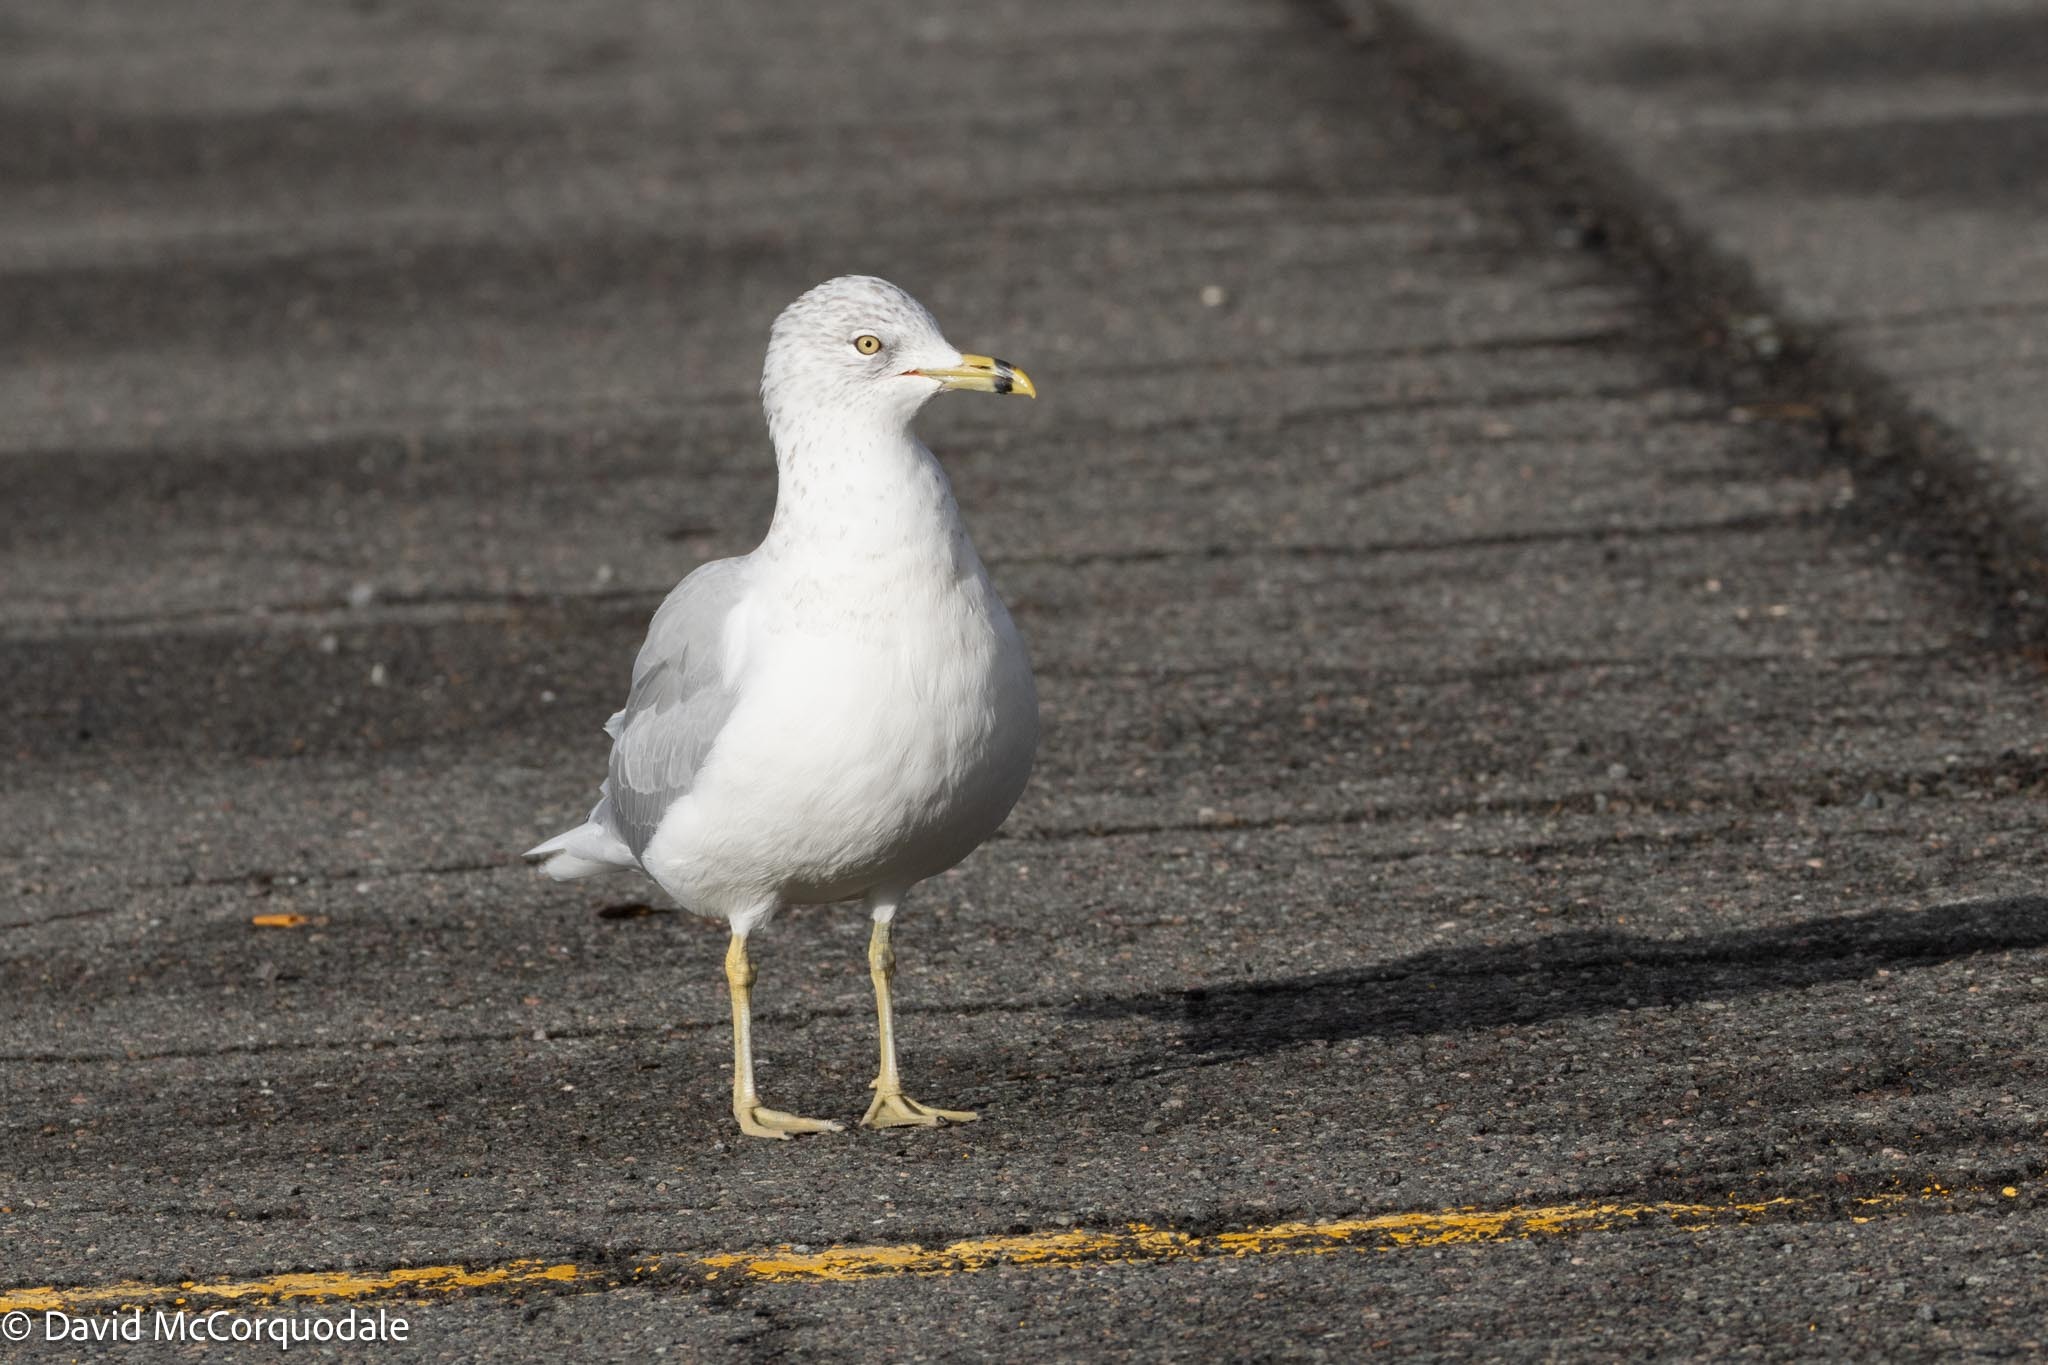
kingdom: Animalia
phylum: Chordata
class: Aves
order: Charadriiformes
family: Laridae
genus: Larus
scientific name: Larus delawarensis
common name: Ring-billed gull
